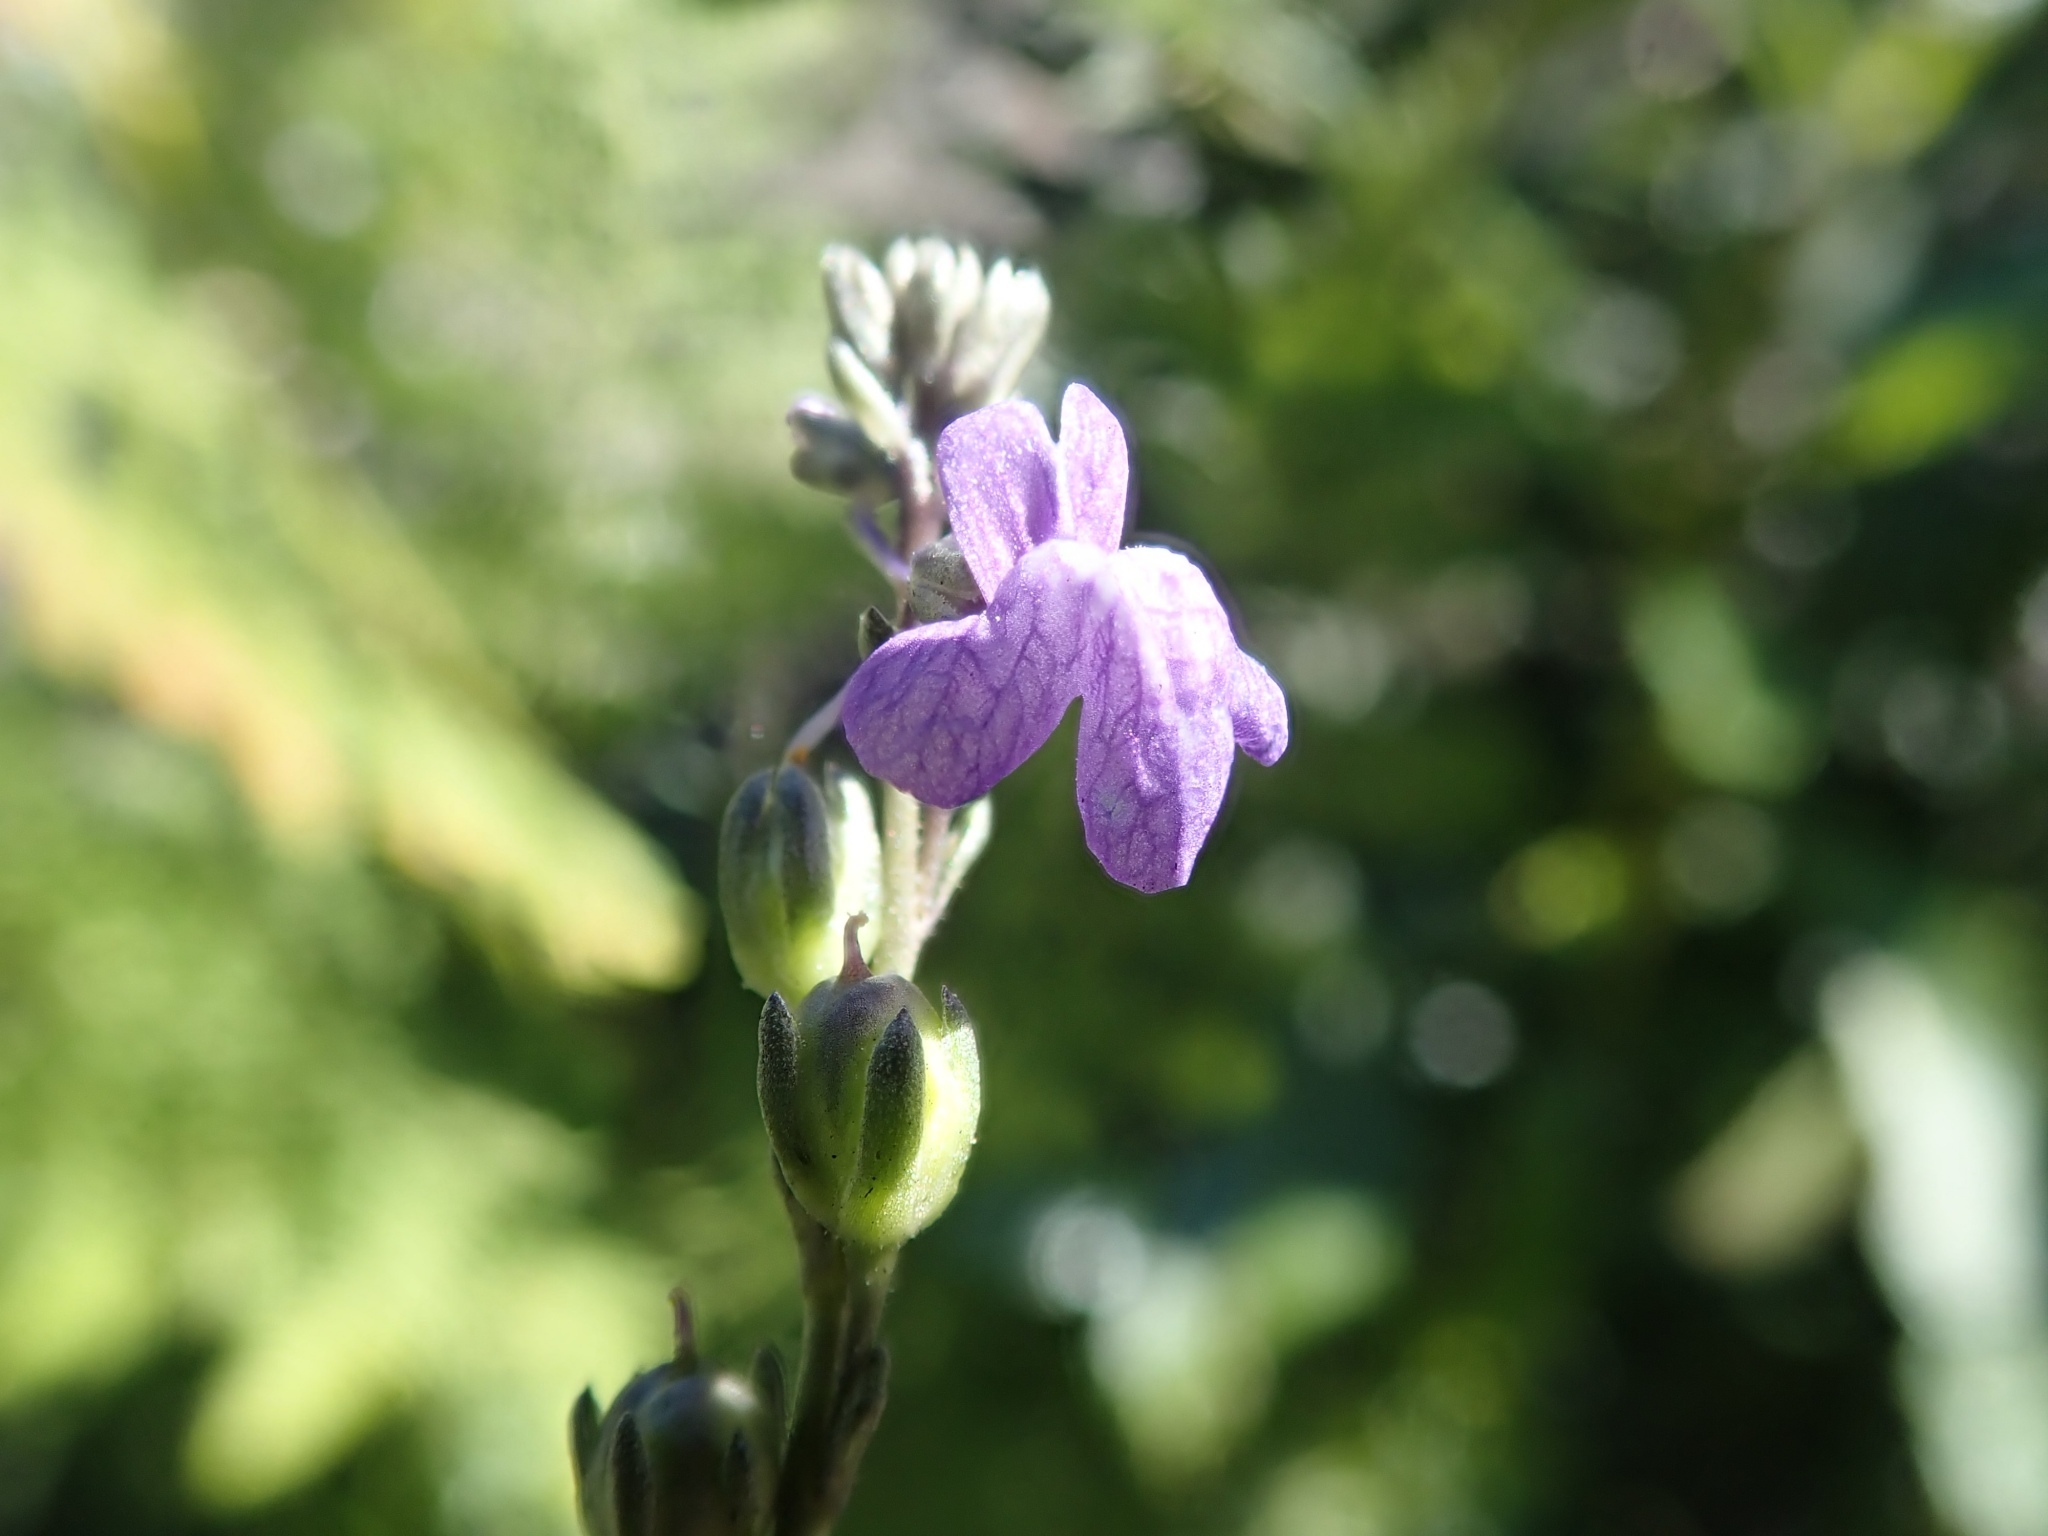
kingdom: Plantae
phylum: Tracheophyta
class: Magnoliopsida
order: Lamiales
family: Plantaginaceae
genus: Nuttallanthus
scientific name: Nuttallanthus texanus
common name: Texas toadflax
